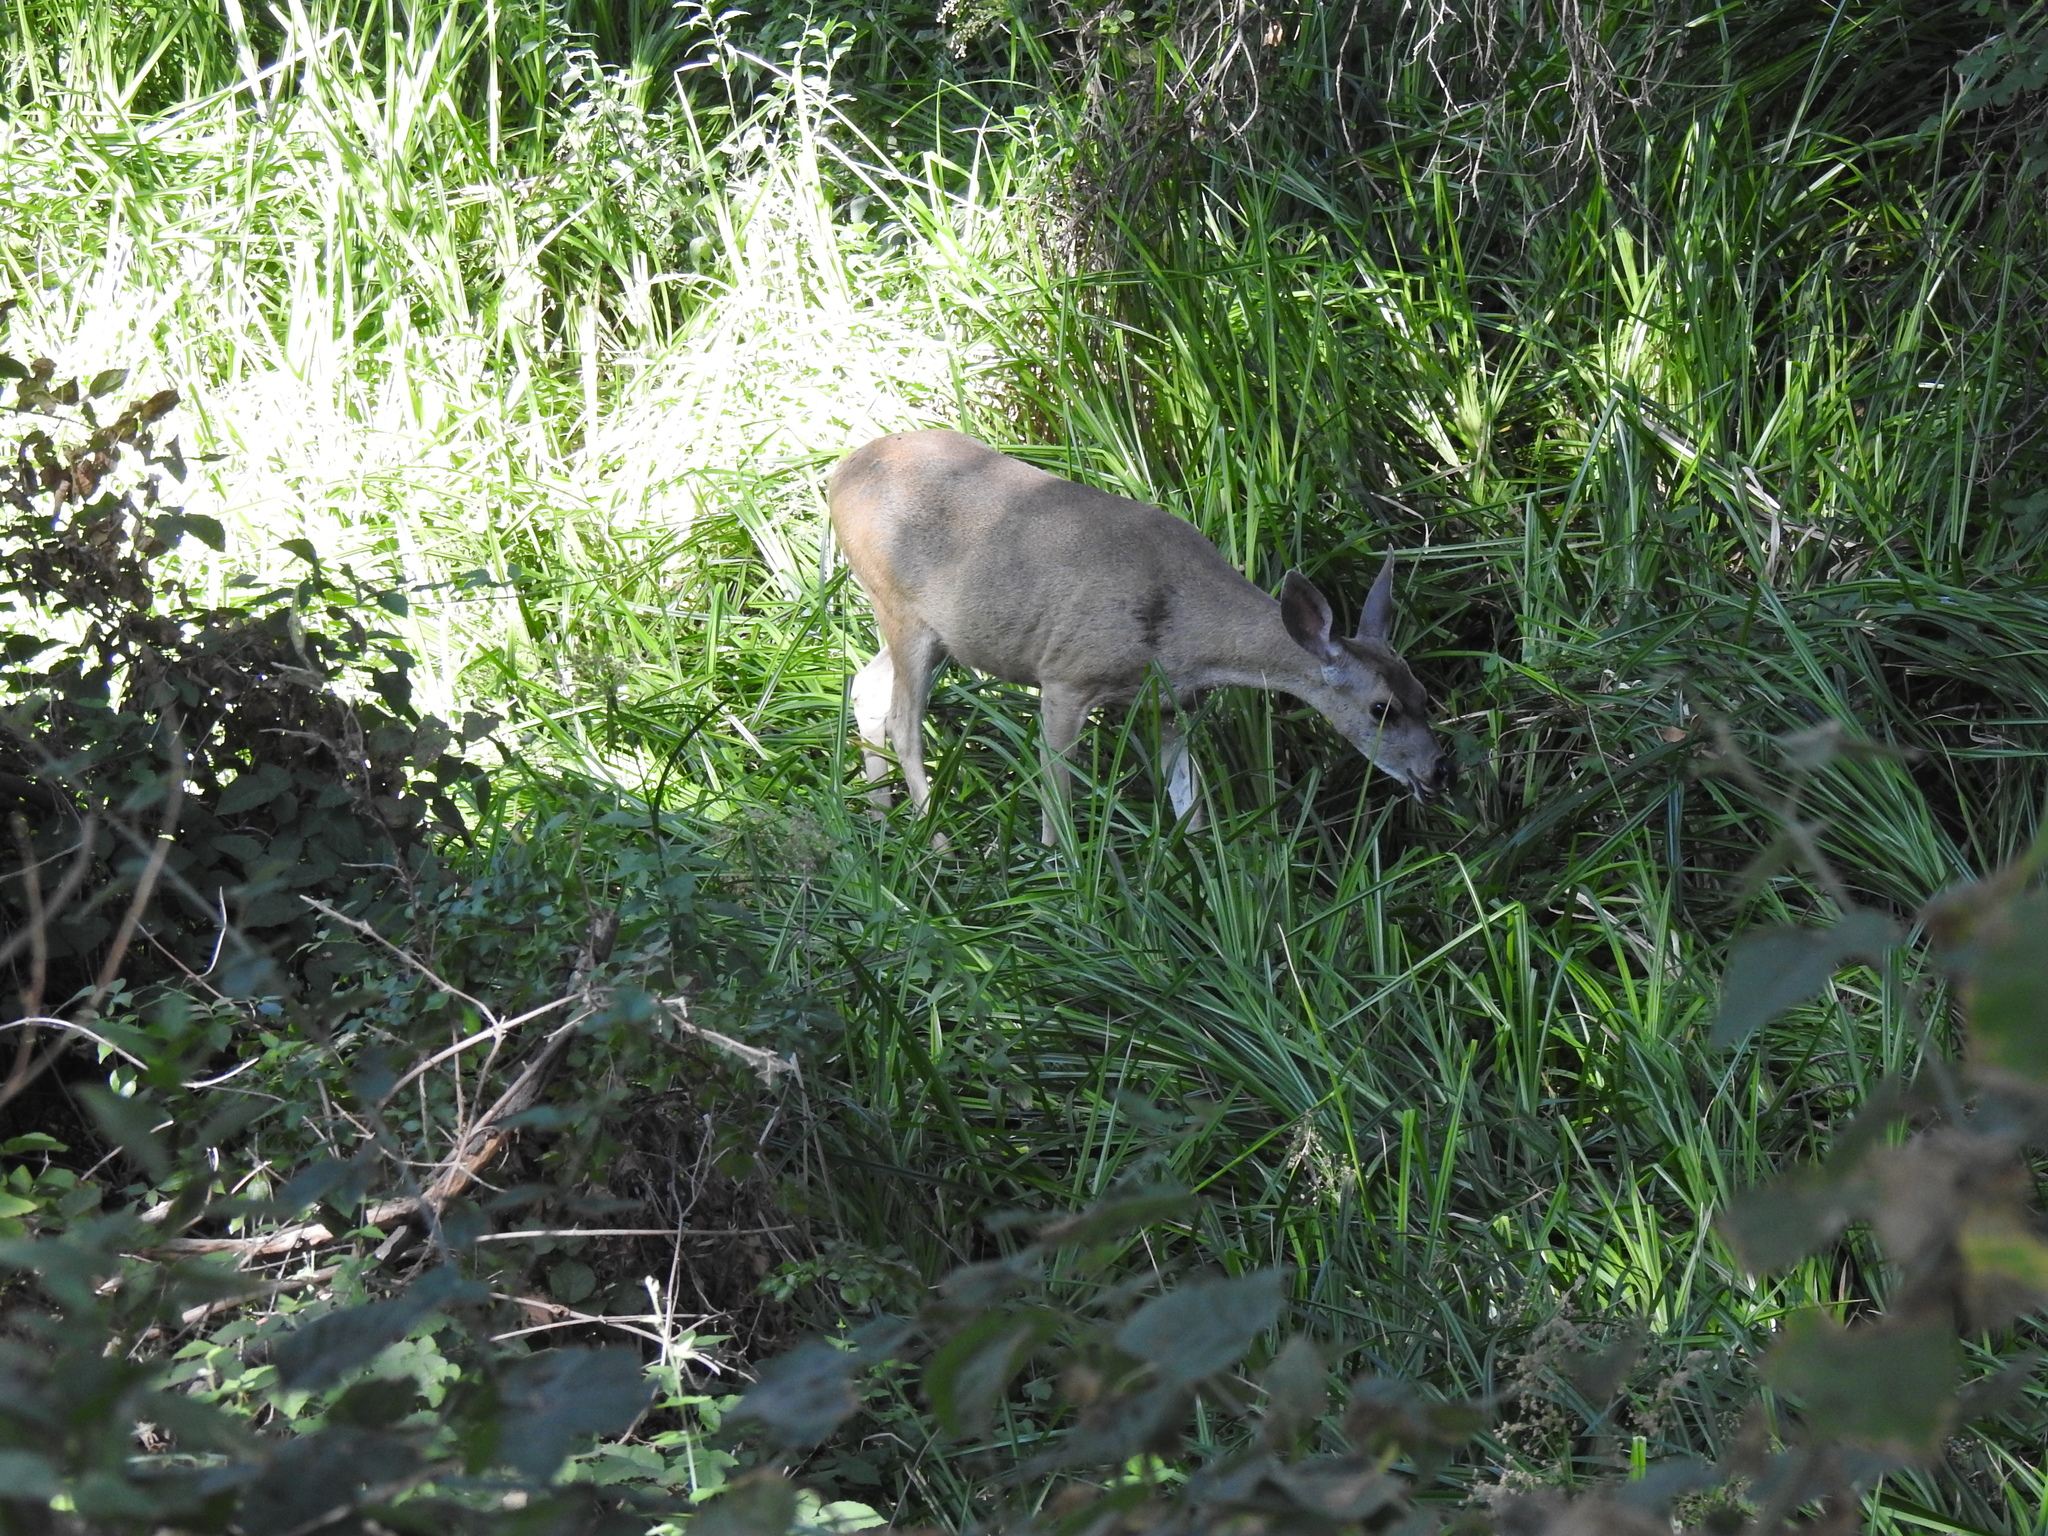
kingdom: Animalia
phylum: Chordata
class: Mammalia
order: Artiodactyla
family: Cervidae
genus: Odocoileus
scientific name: Odocoileus hemionus
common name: Mule deer
